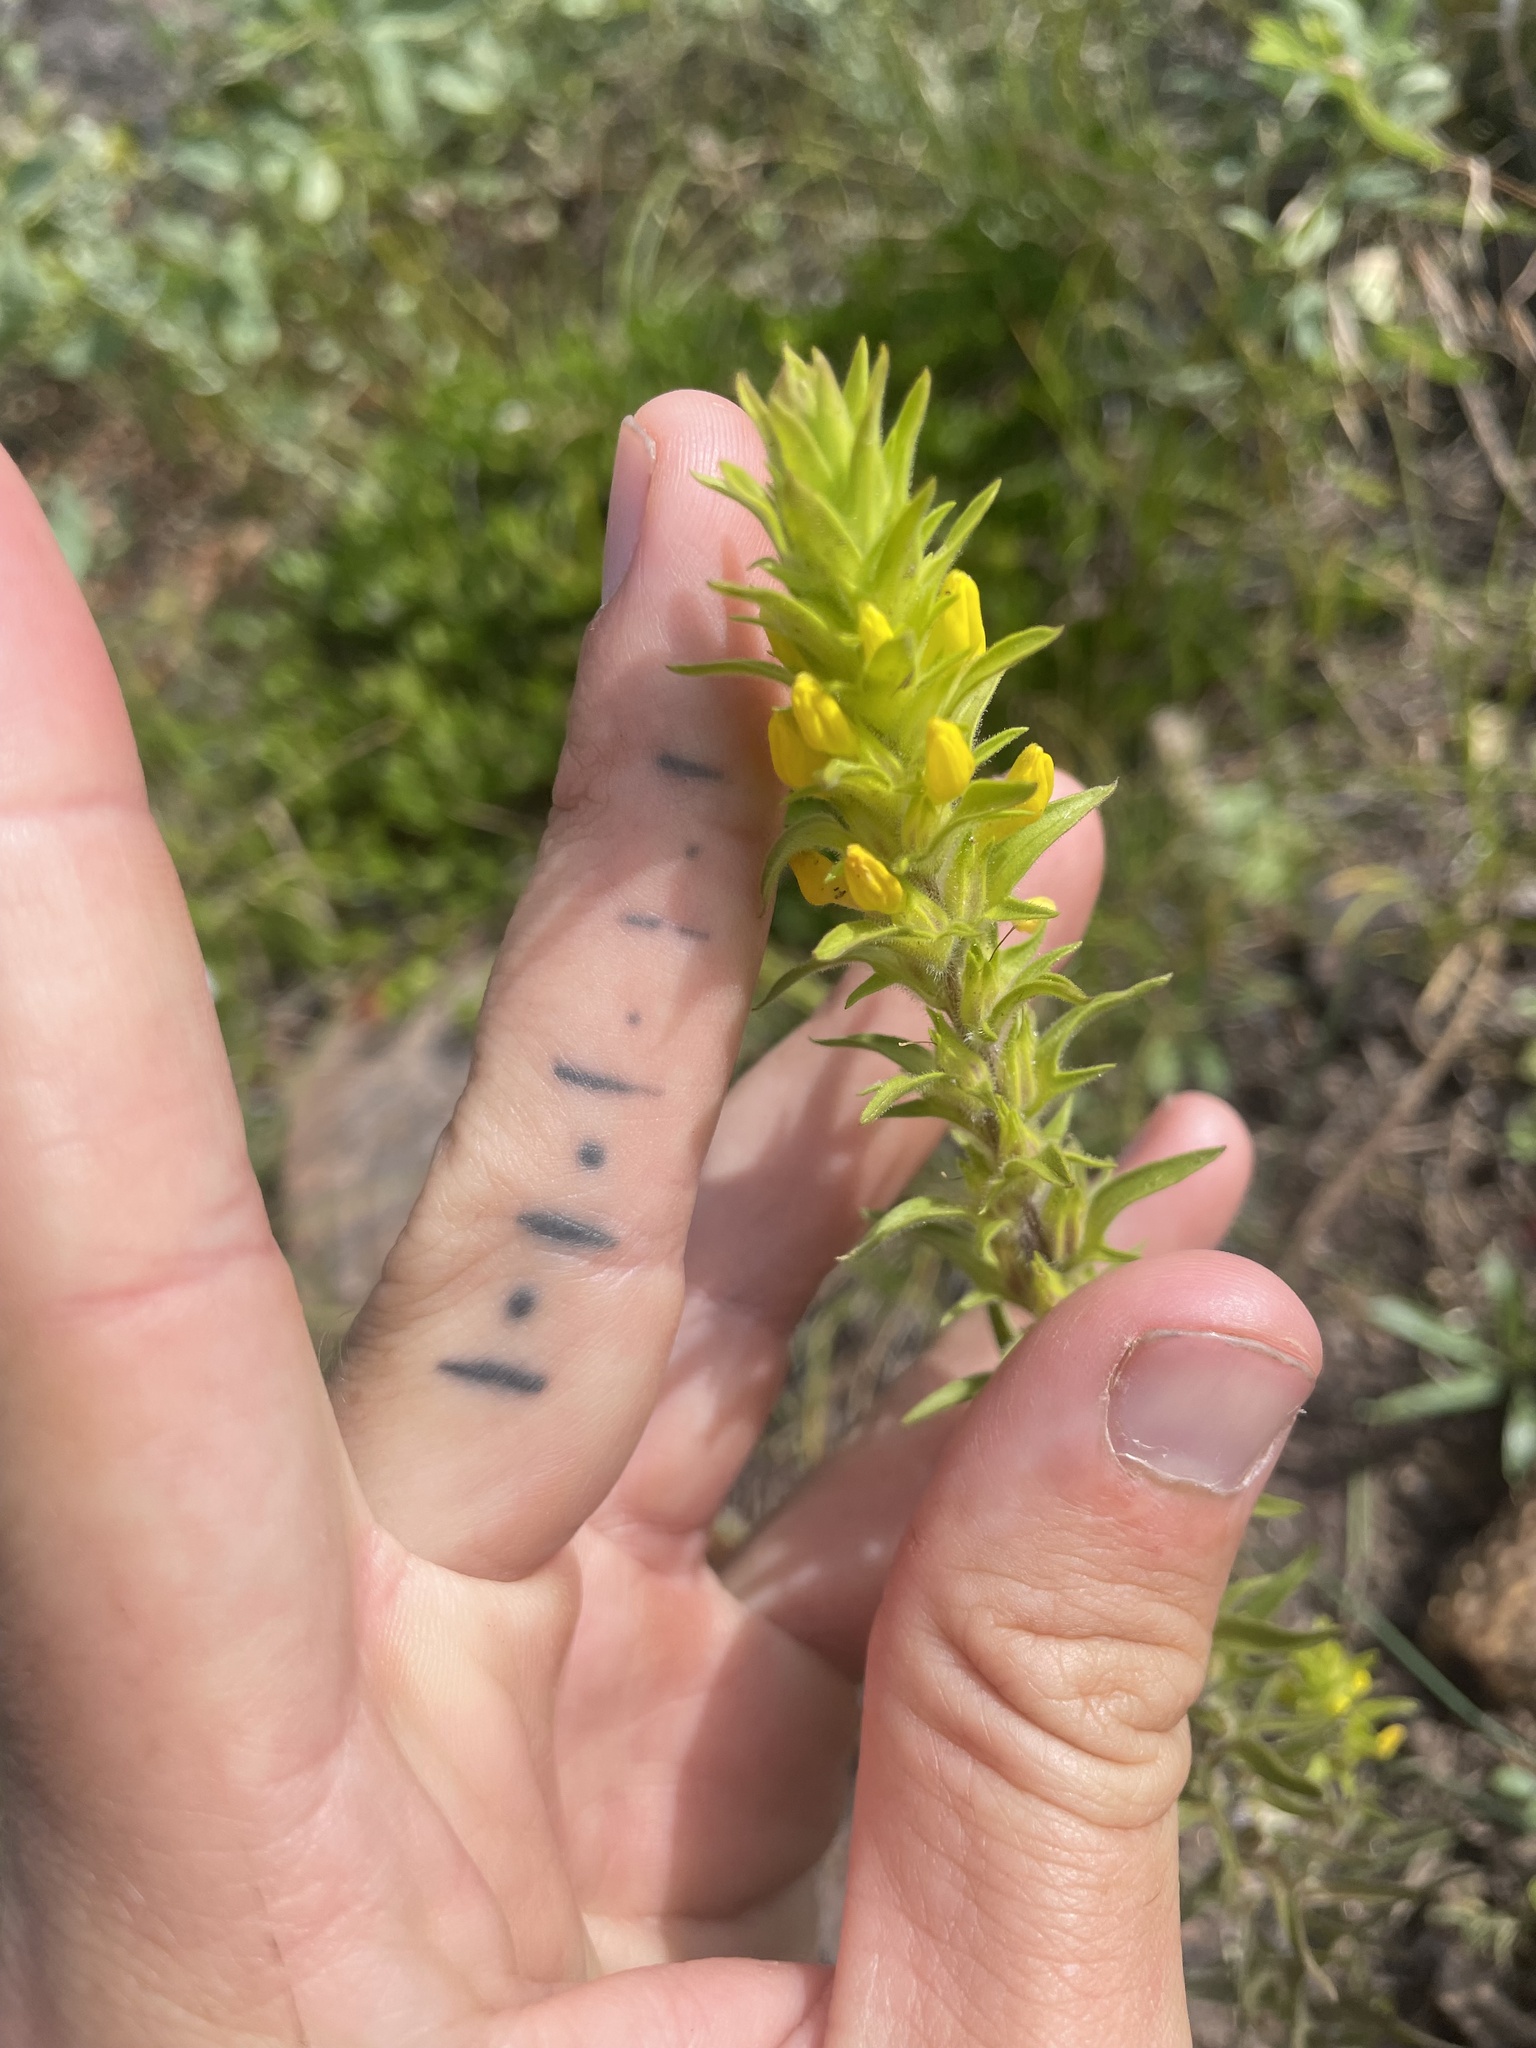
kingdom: Plantae
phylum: Tracheophyta
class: Magnoliopsida
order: Lamiales
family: Orobanchaceae
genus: Orthocarpus
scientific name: Orthocarpus luteus
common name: Golden-tongue owl's-clover
